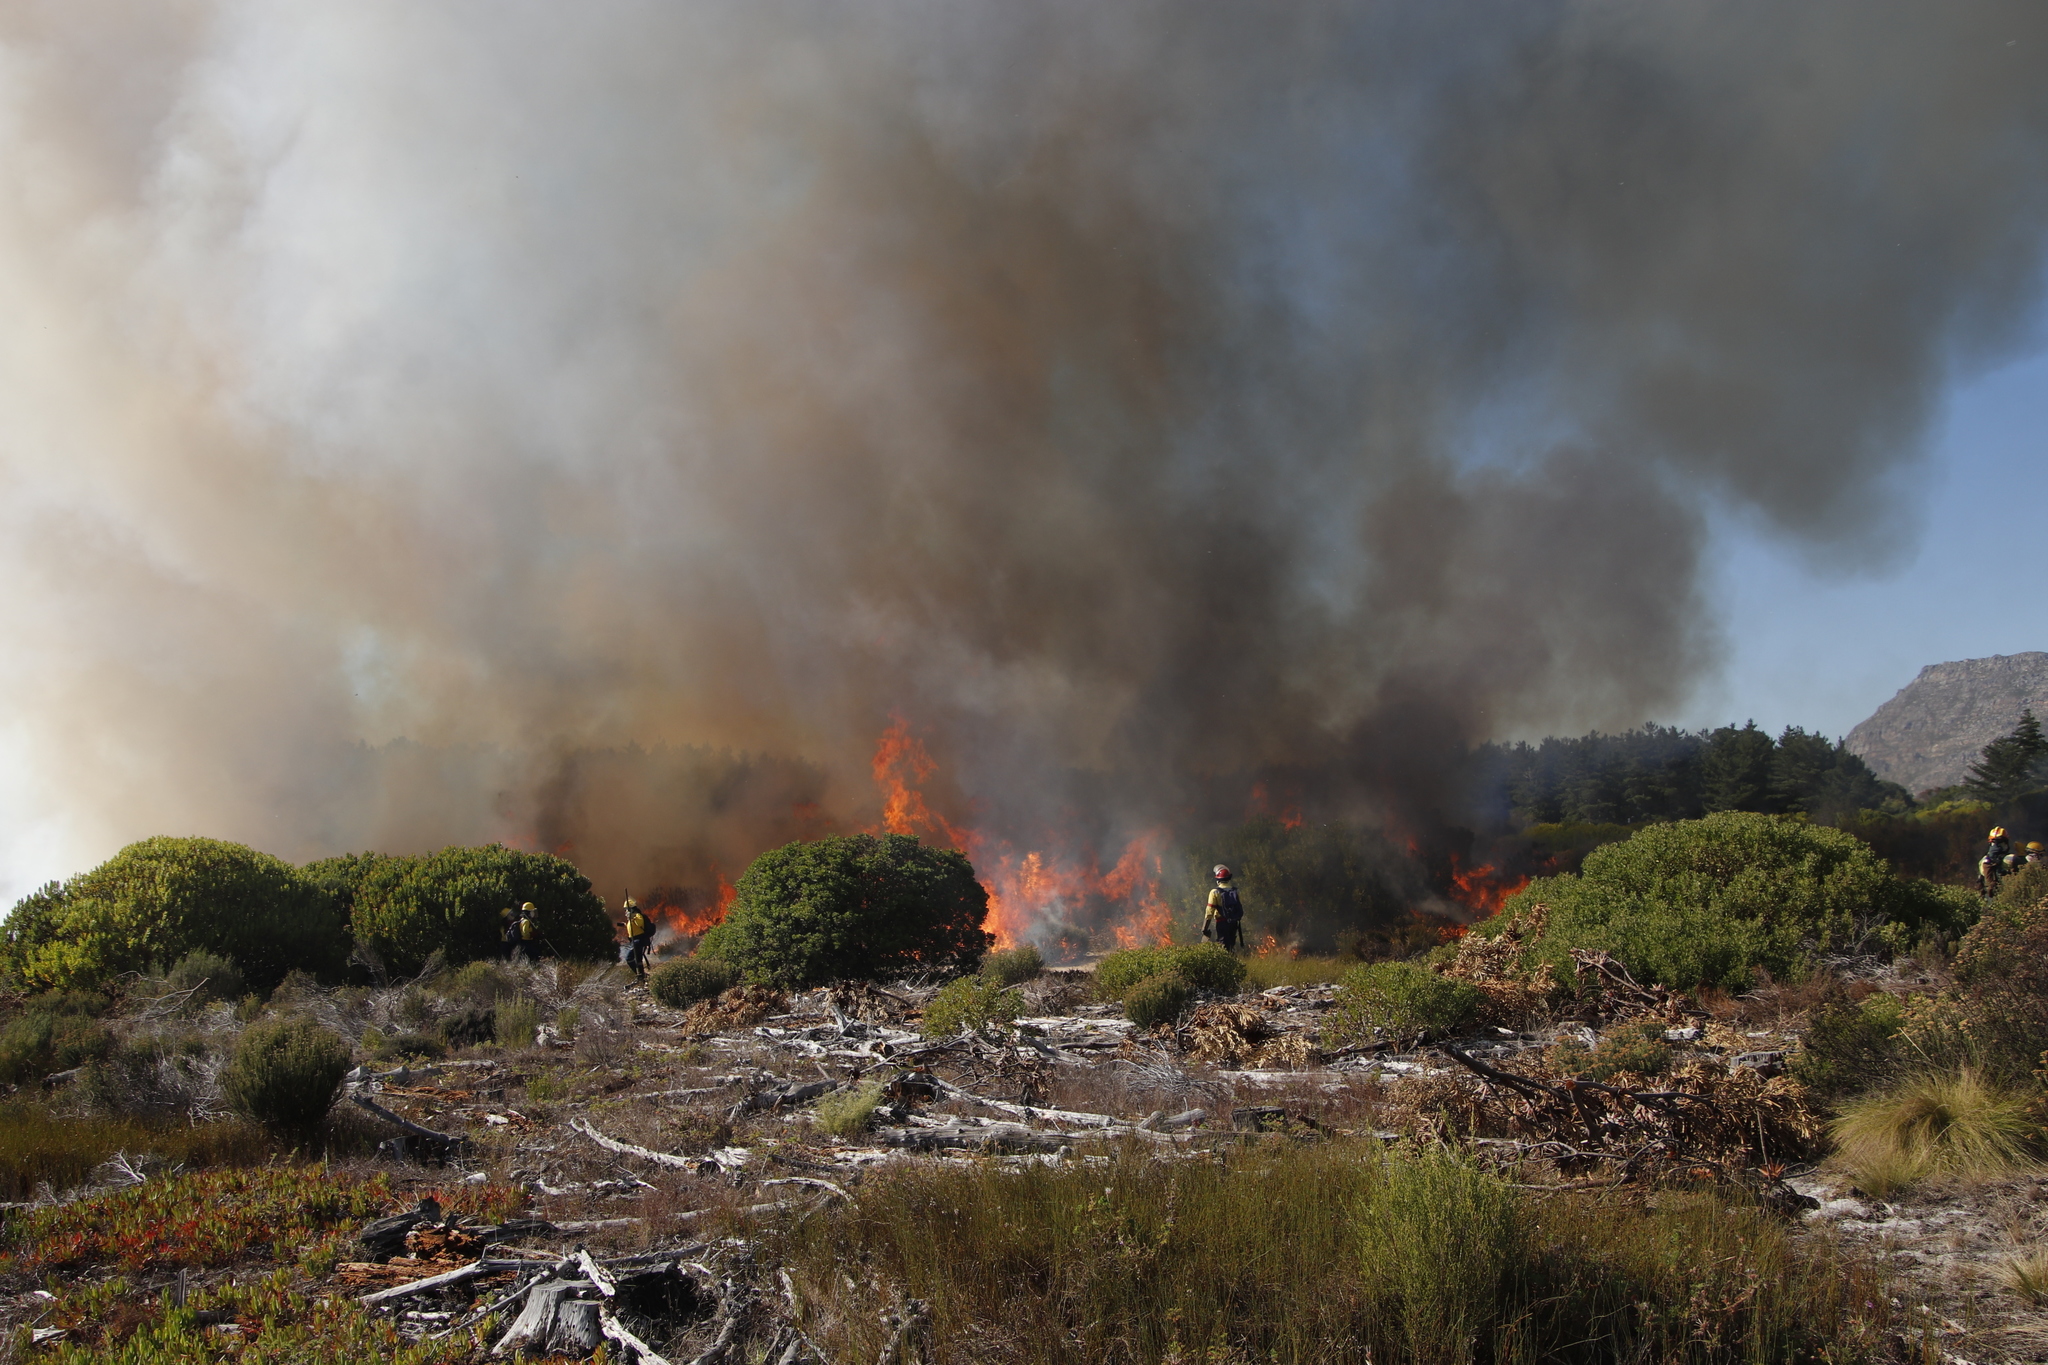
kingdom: Plantae
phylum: Tracheophyta
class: Magnoliopsida
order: Proteales
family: Proteaceae
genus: Leucadendron
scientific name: Leucadendron laureolum
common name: Golden sunshinebush
